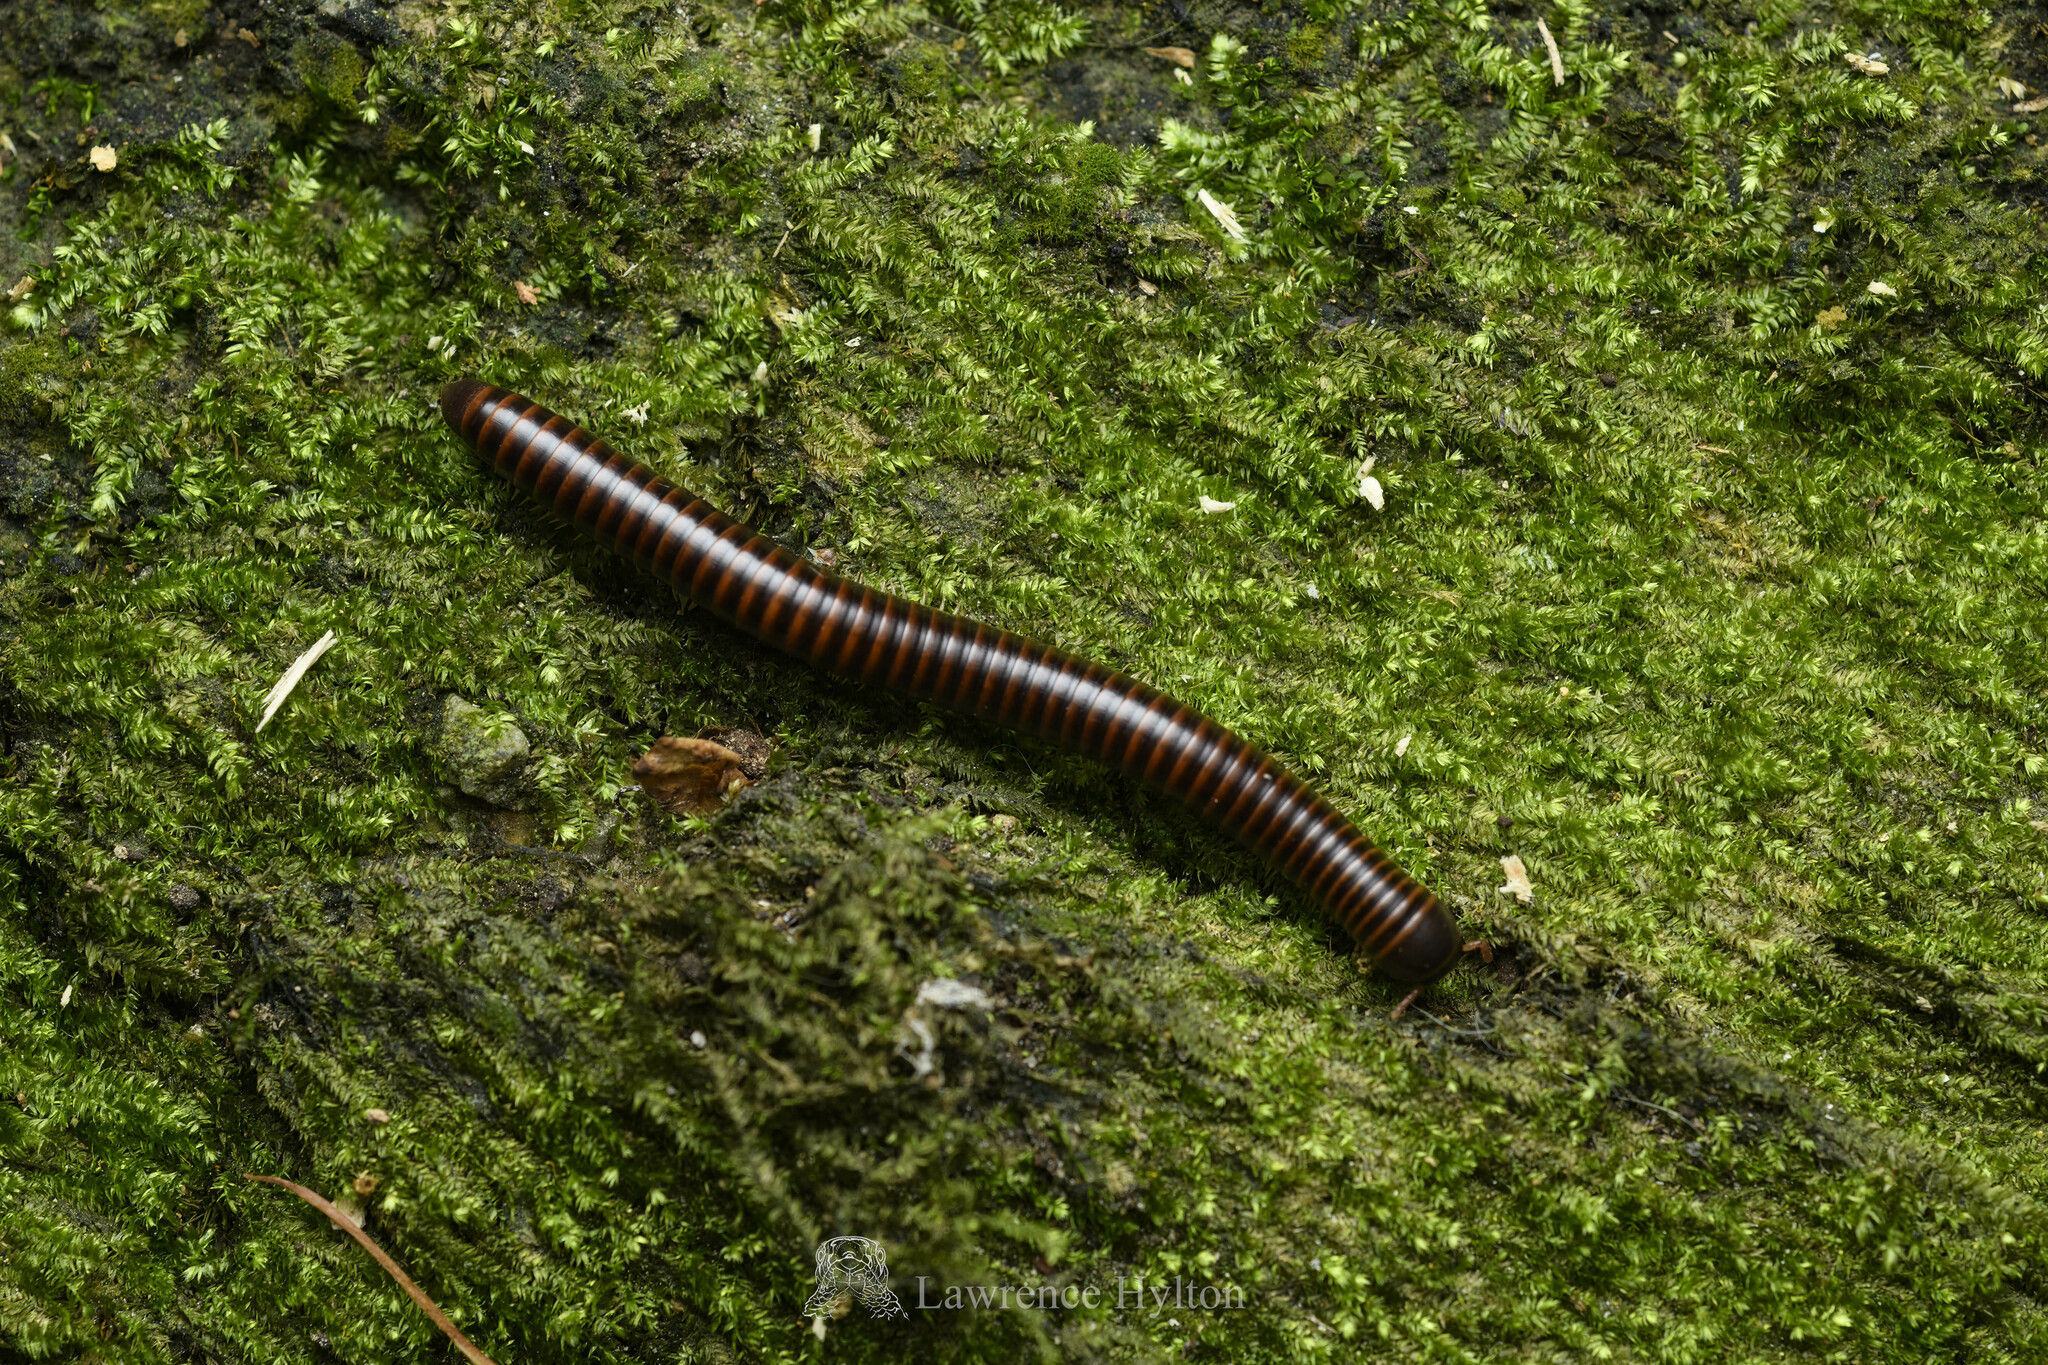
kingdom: Animalia
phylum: Arthropoda
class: Diplopoda
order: Spirobolida
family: Pachybolidae
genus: Leptogoniulus
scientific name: Leptogoniulus sorornus
